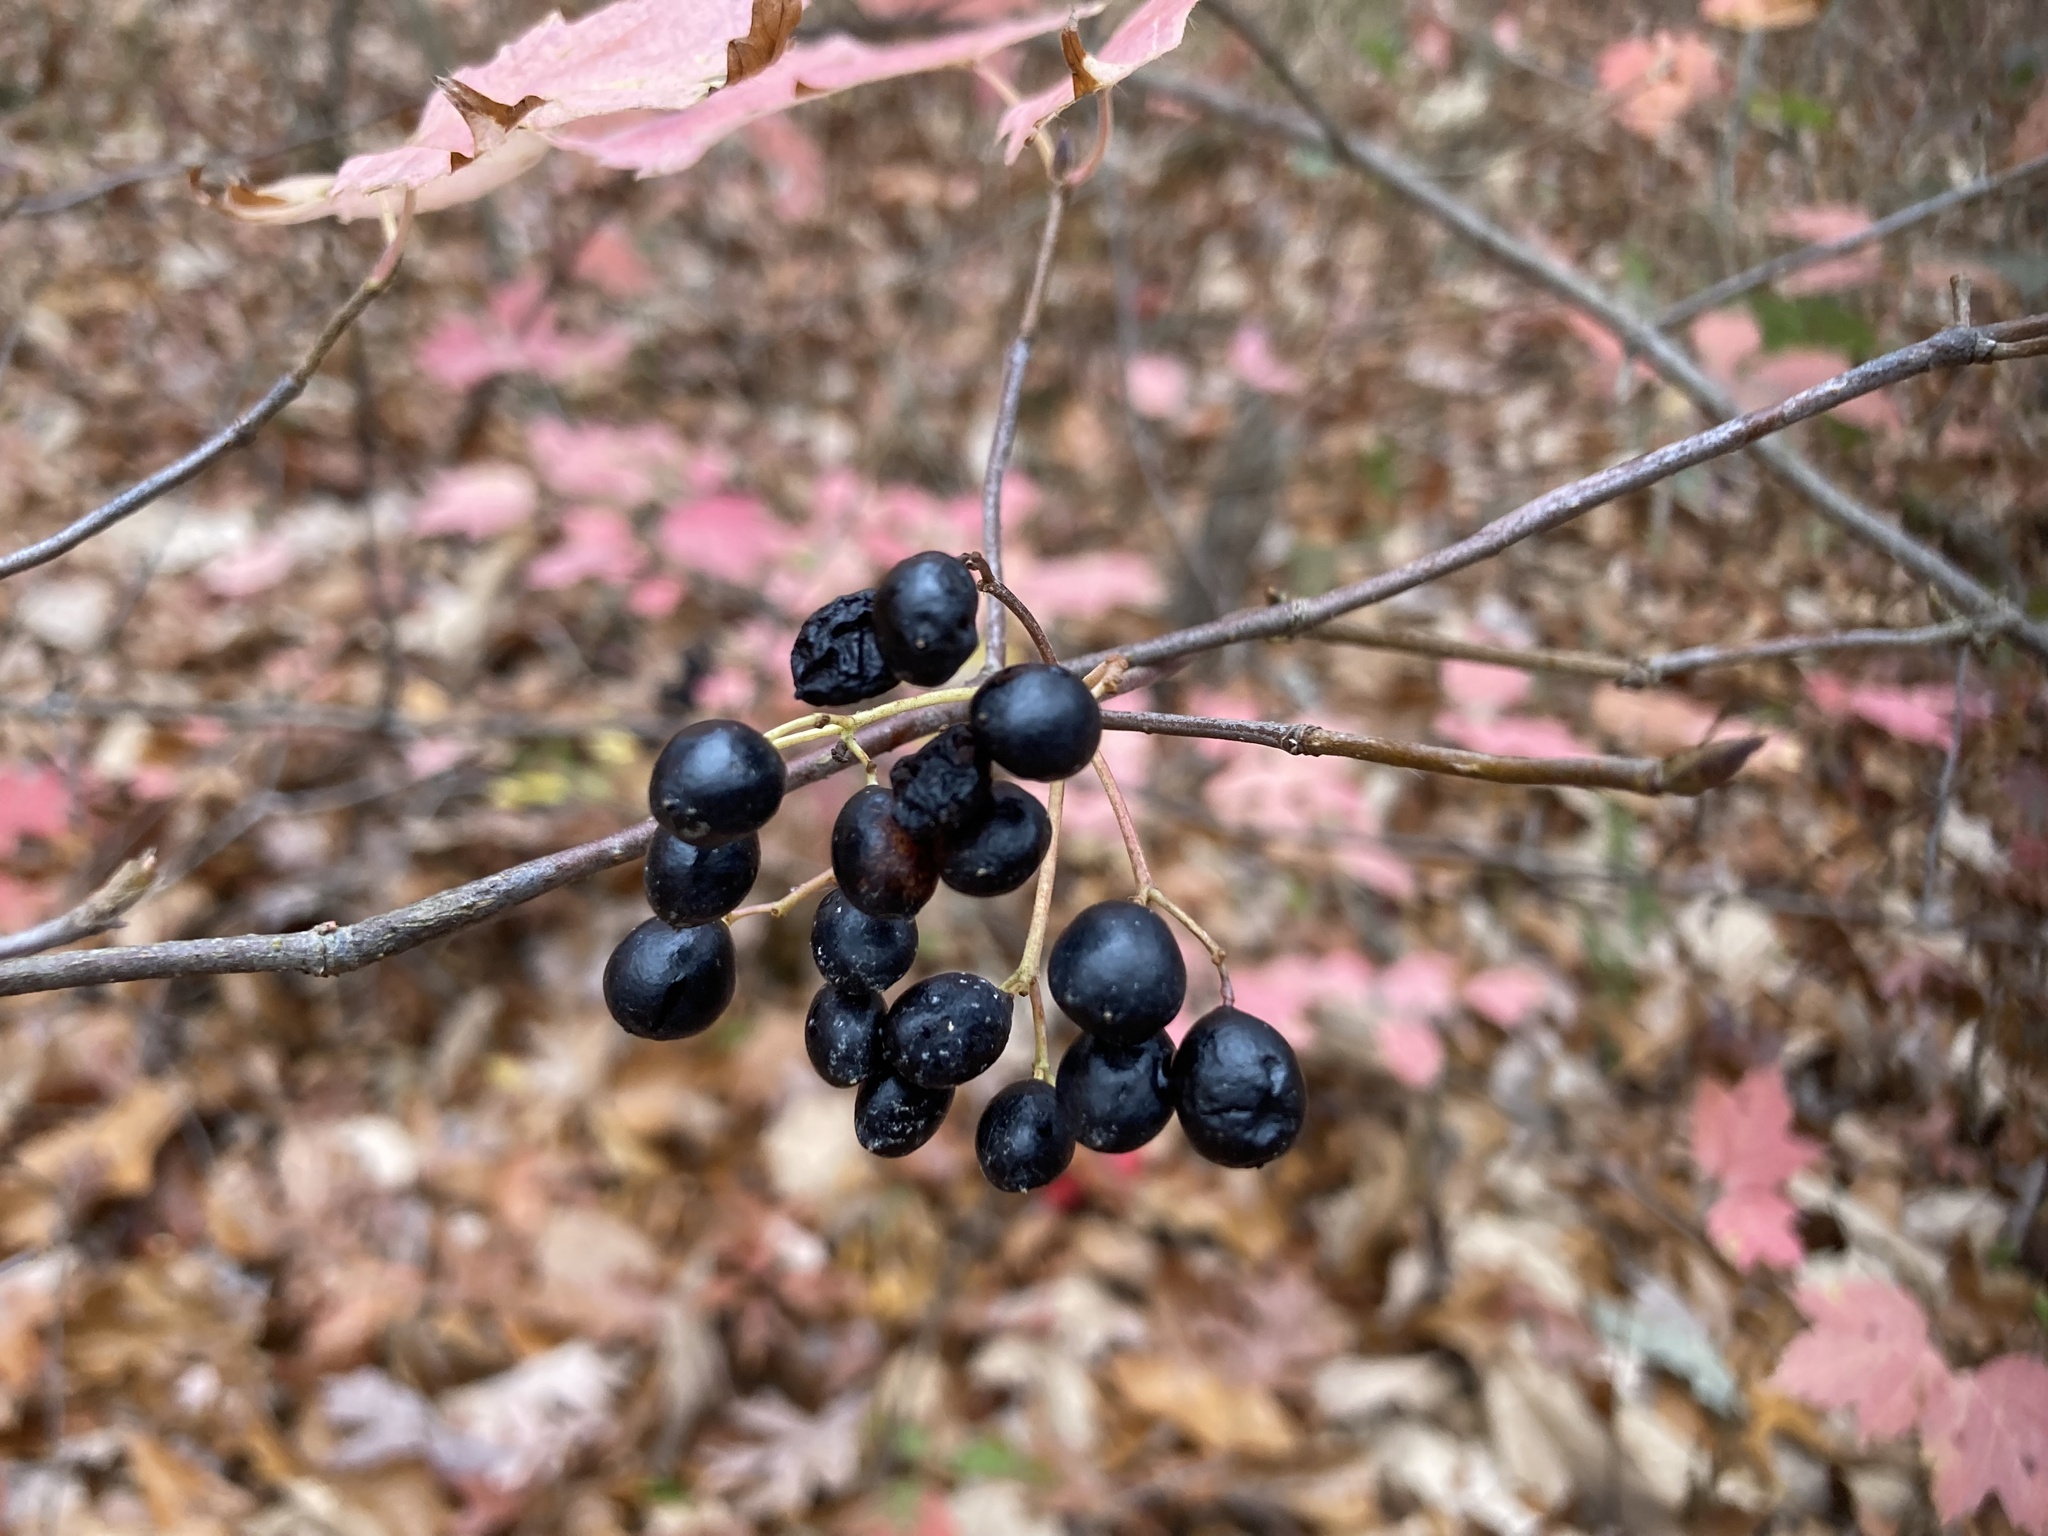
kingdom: Plantae
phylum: Tracheophyta
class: Magnoliopsida
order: Dipsacales
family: Viburnaceae
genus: Viburnum
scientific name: Viburnum acerifolium
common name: Dockmackie
